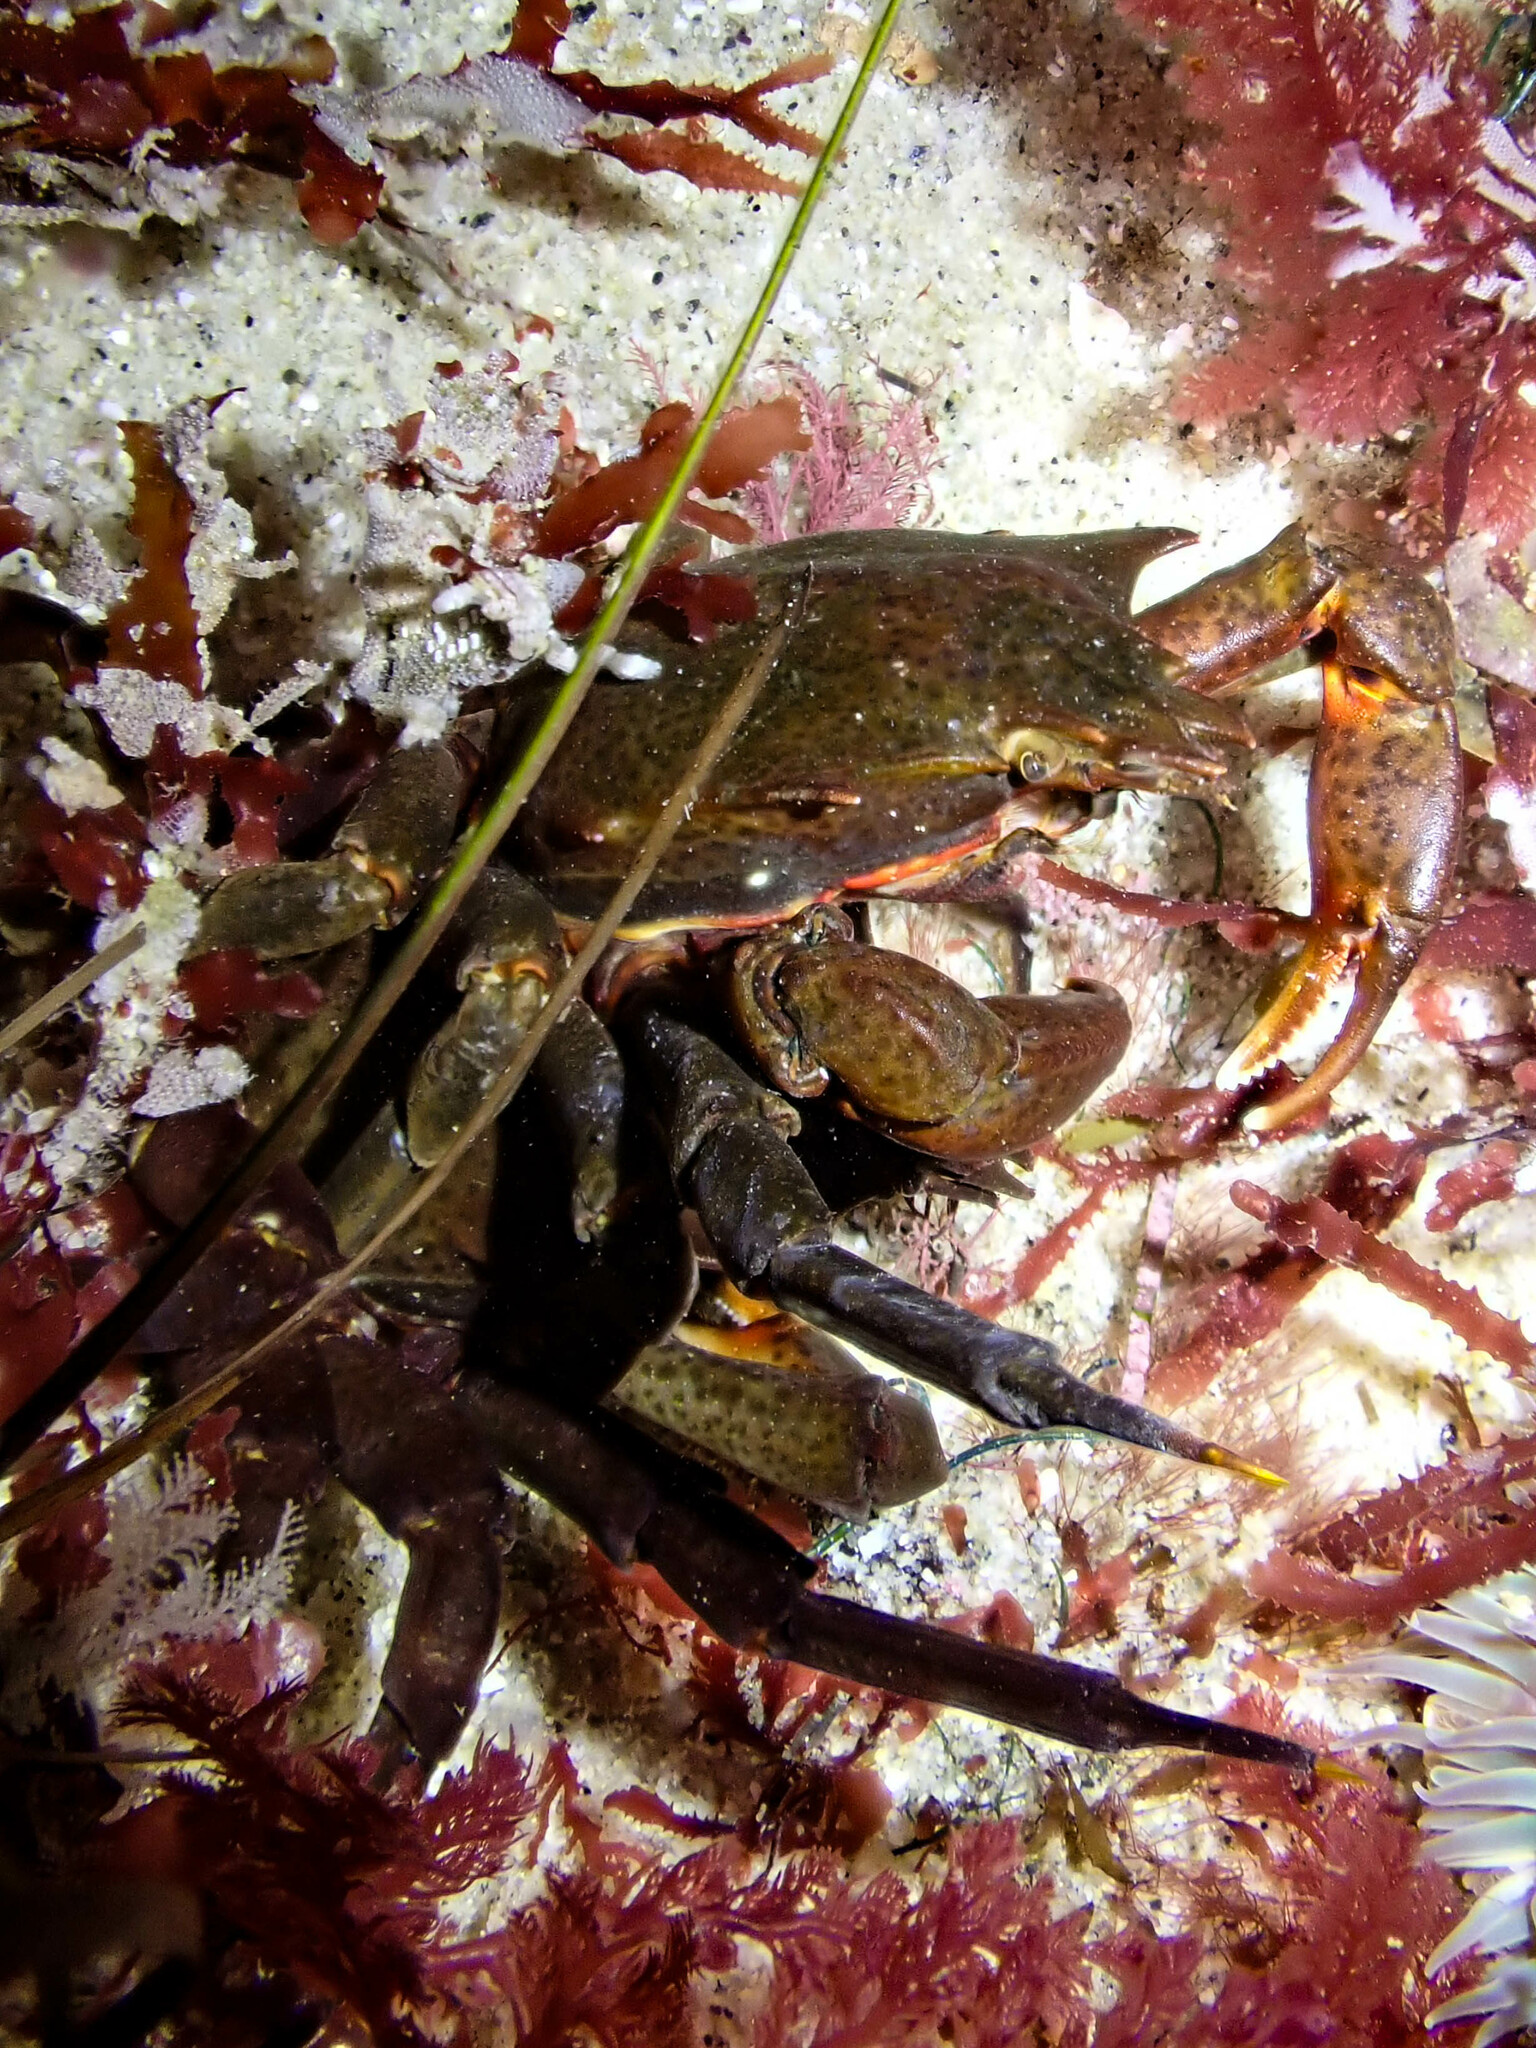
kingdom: Animalia
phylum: Arthropoda
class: Malacostraca
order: Decapoda
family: Epialtidae
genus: Pugettia
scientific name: Pugettia producta
